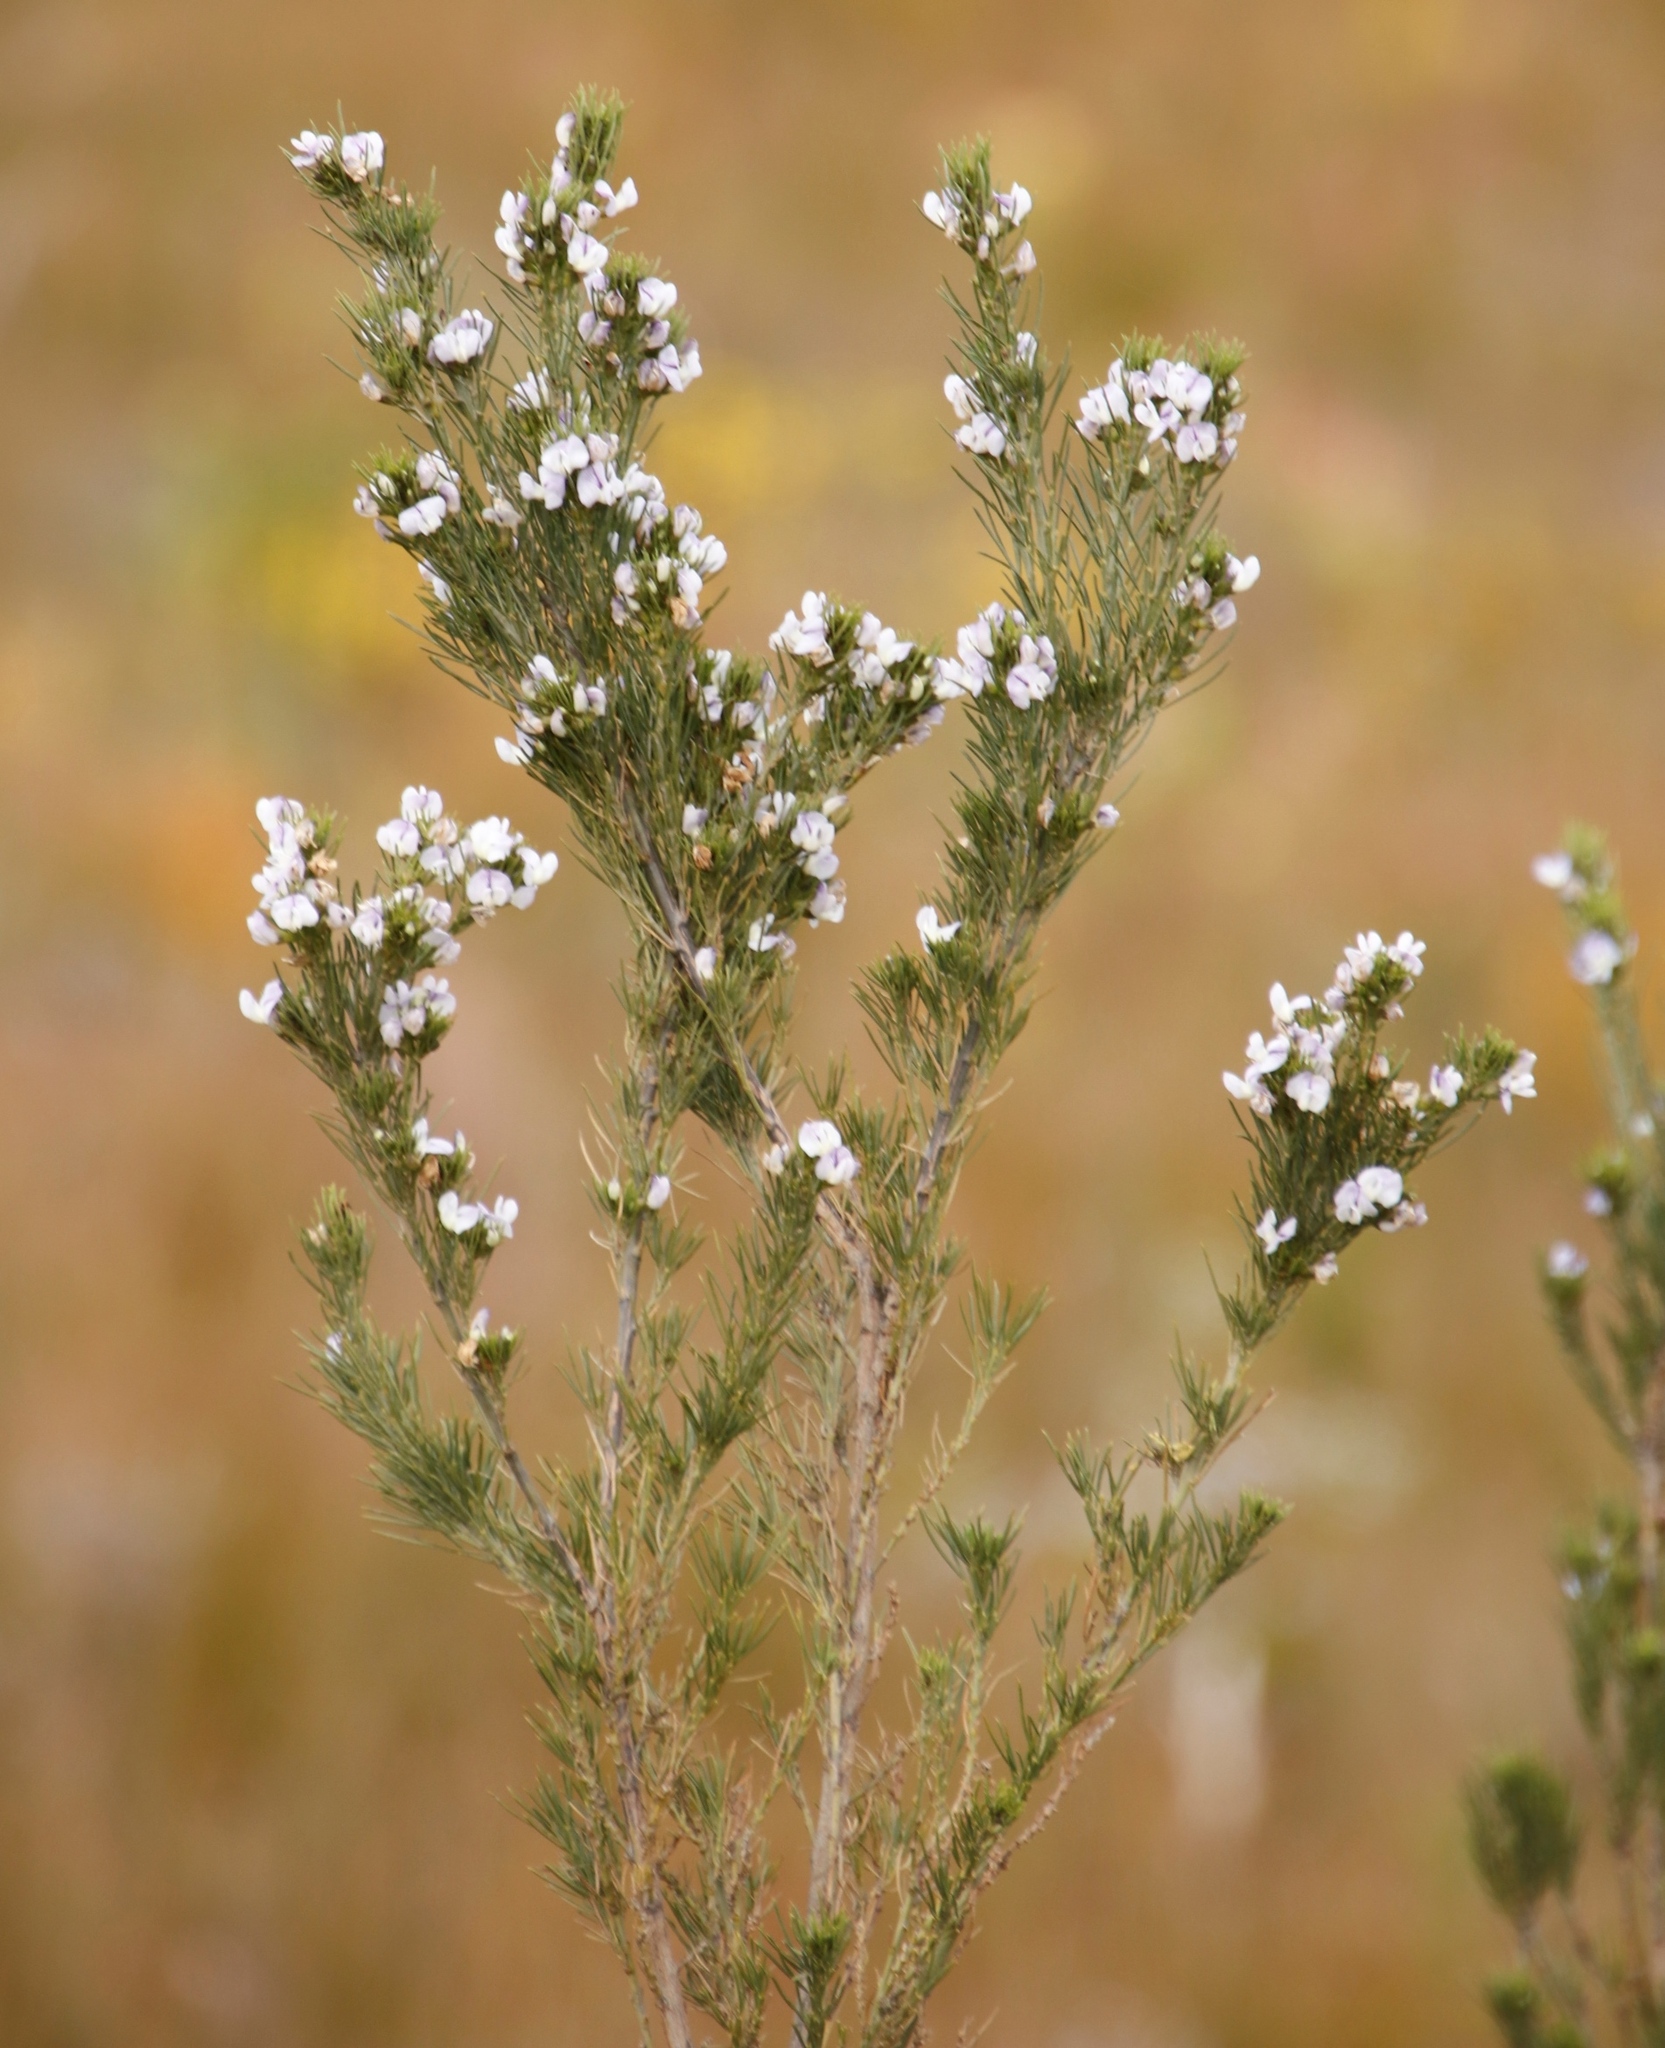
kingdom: Plantae
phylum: Tracheophyta
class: Magnoliopsida
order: Fabales
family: Fabaceae
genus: Psoralea
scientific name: Psoralea
